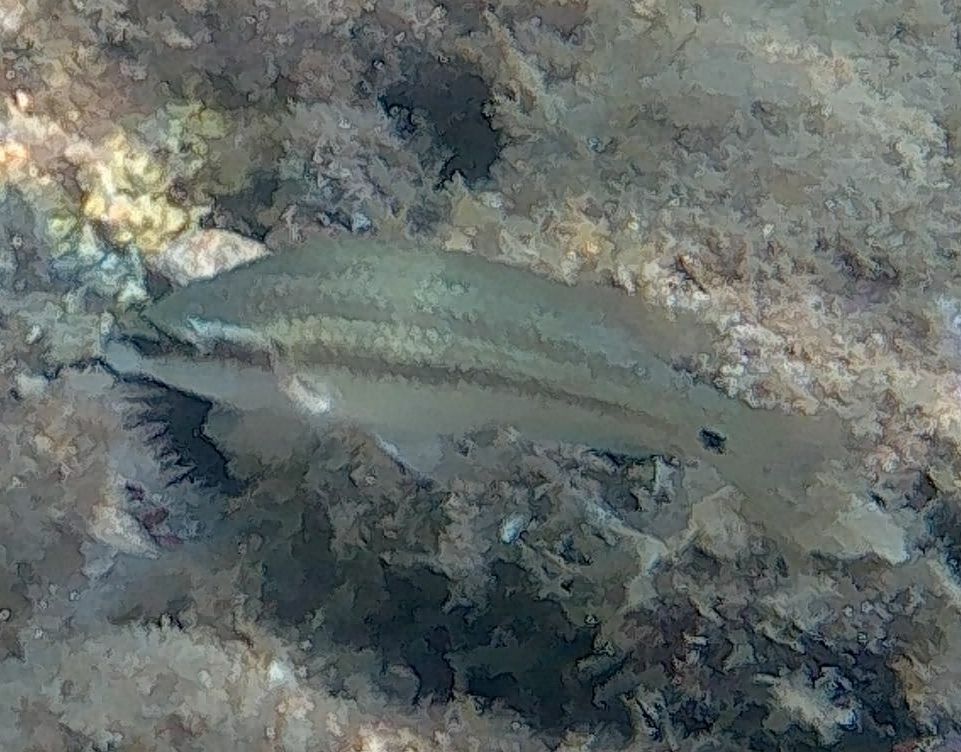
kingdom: Animalia
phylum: Chordata
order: Perciformes
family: Labridae
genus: Symphodus
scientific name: Symphodus tinca
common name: Peacock wrasse
